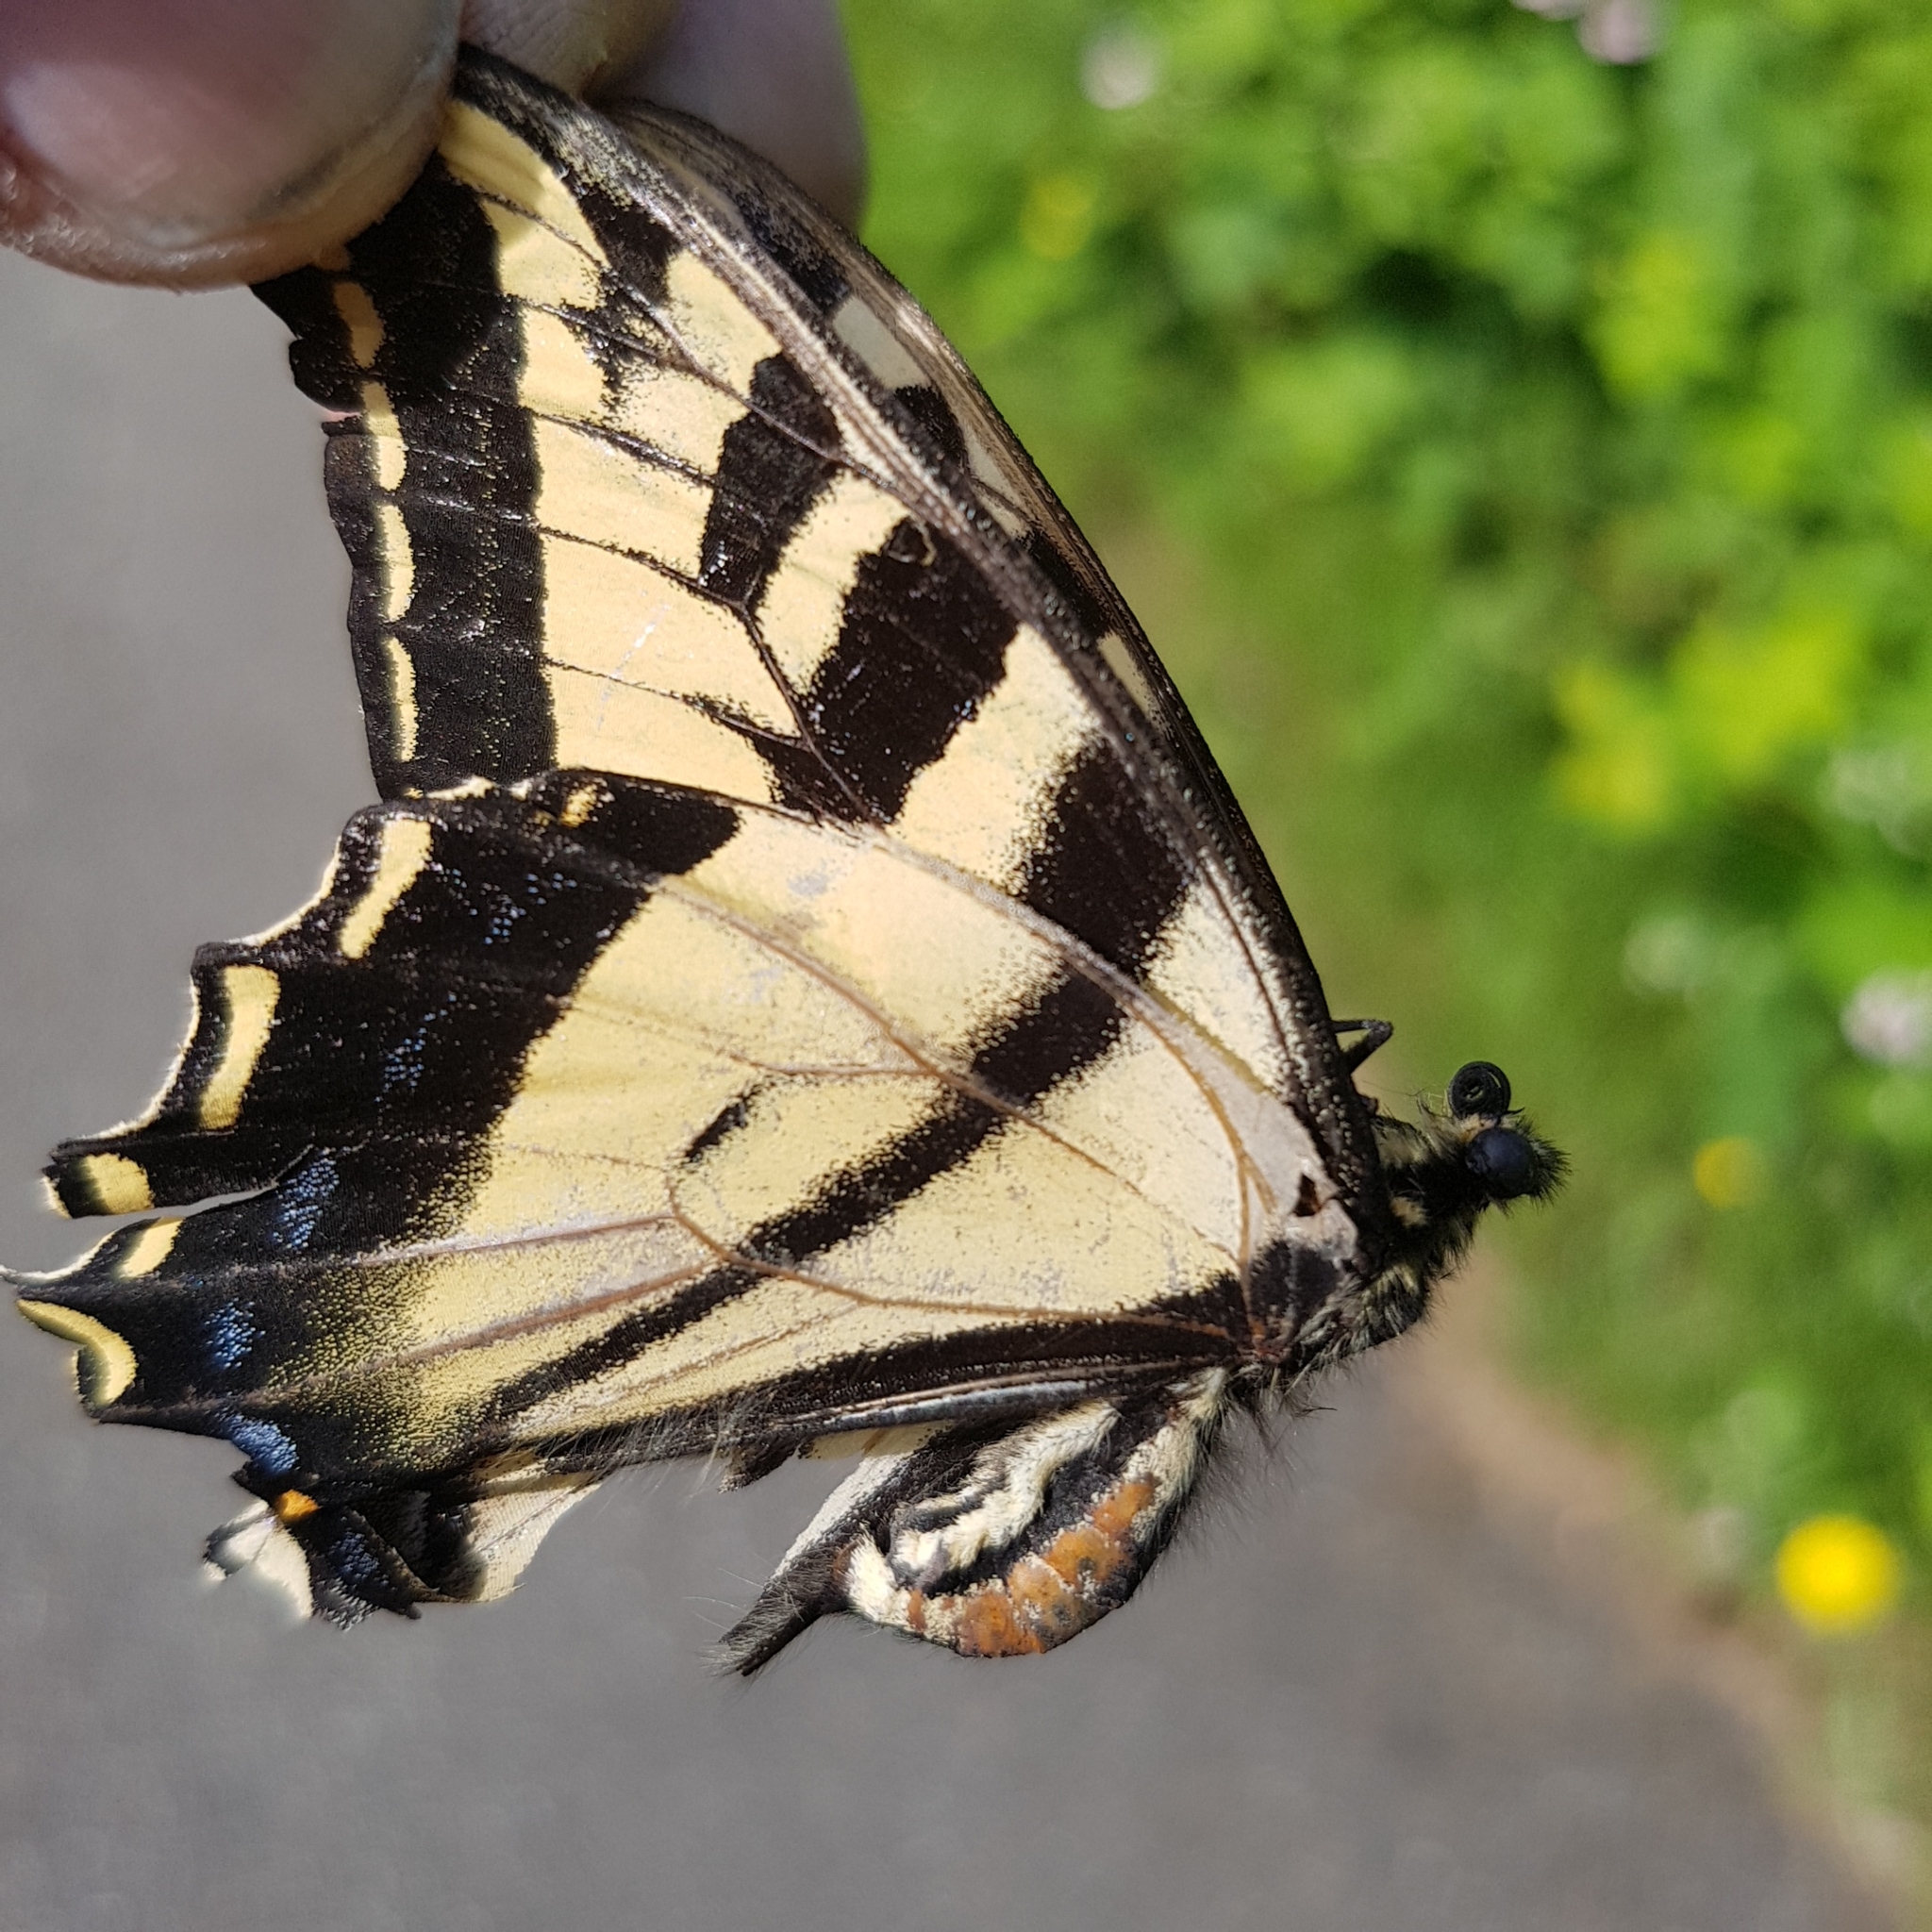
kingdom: Animalia
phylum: Arthropoda
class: Insecta
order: Lepidoptera
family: Papilionidae
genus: Papilio
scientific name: Papilio rutulus
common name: Western tiger swallowtail
